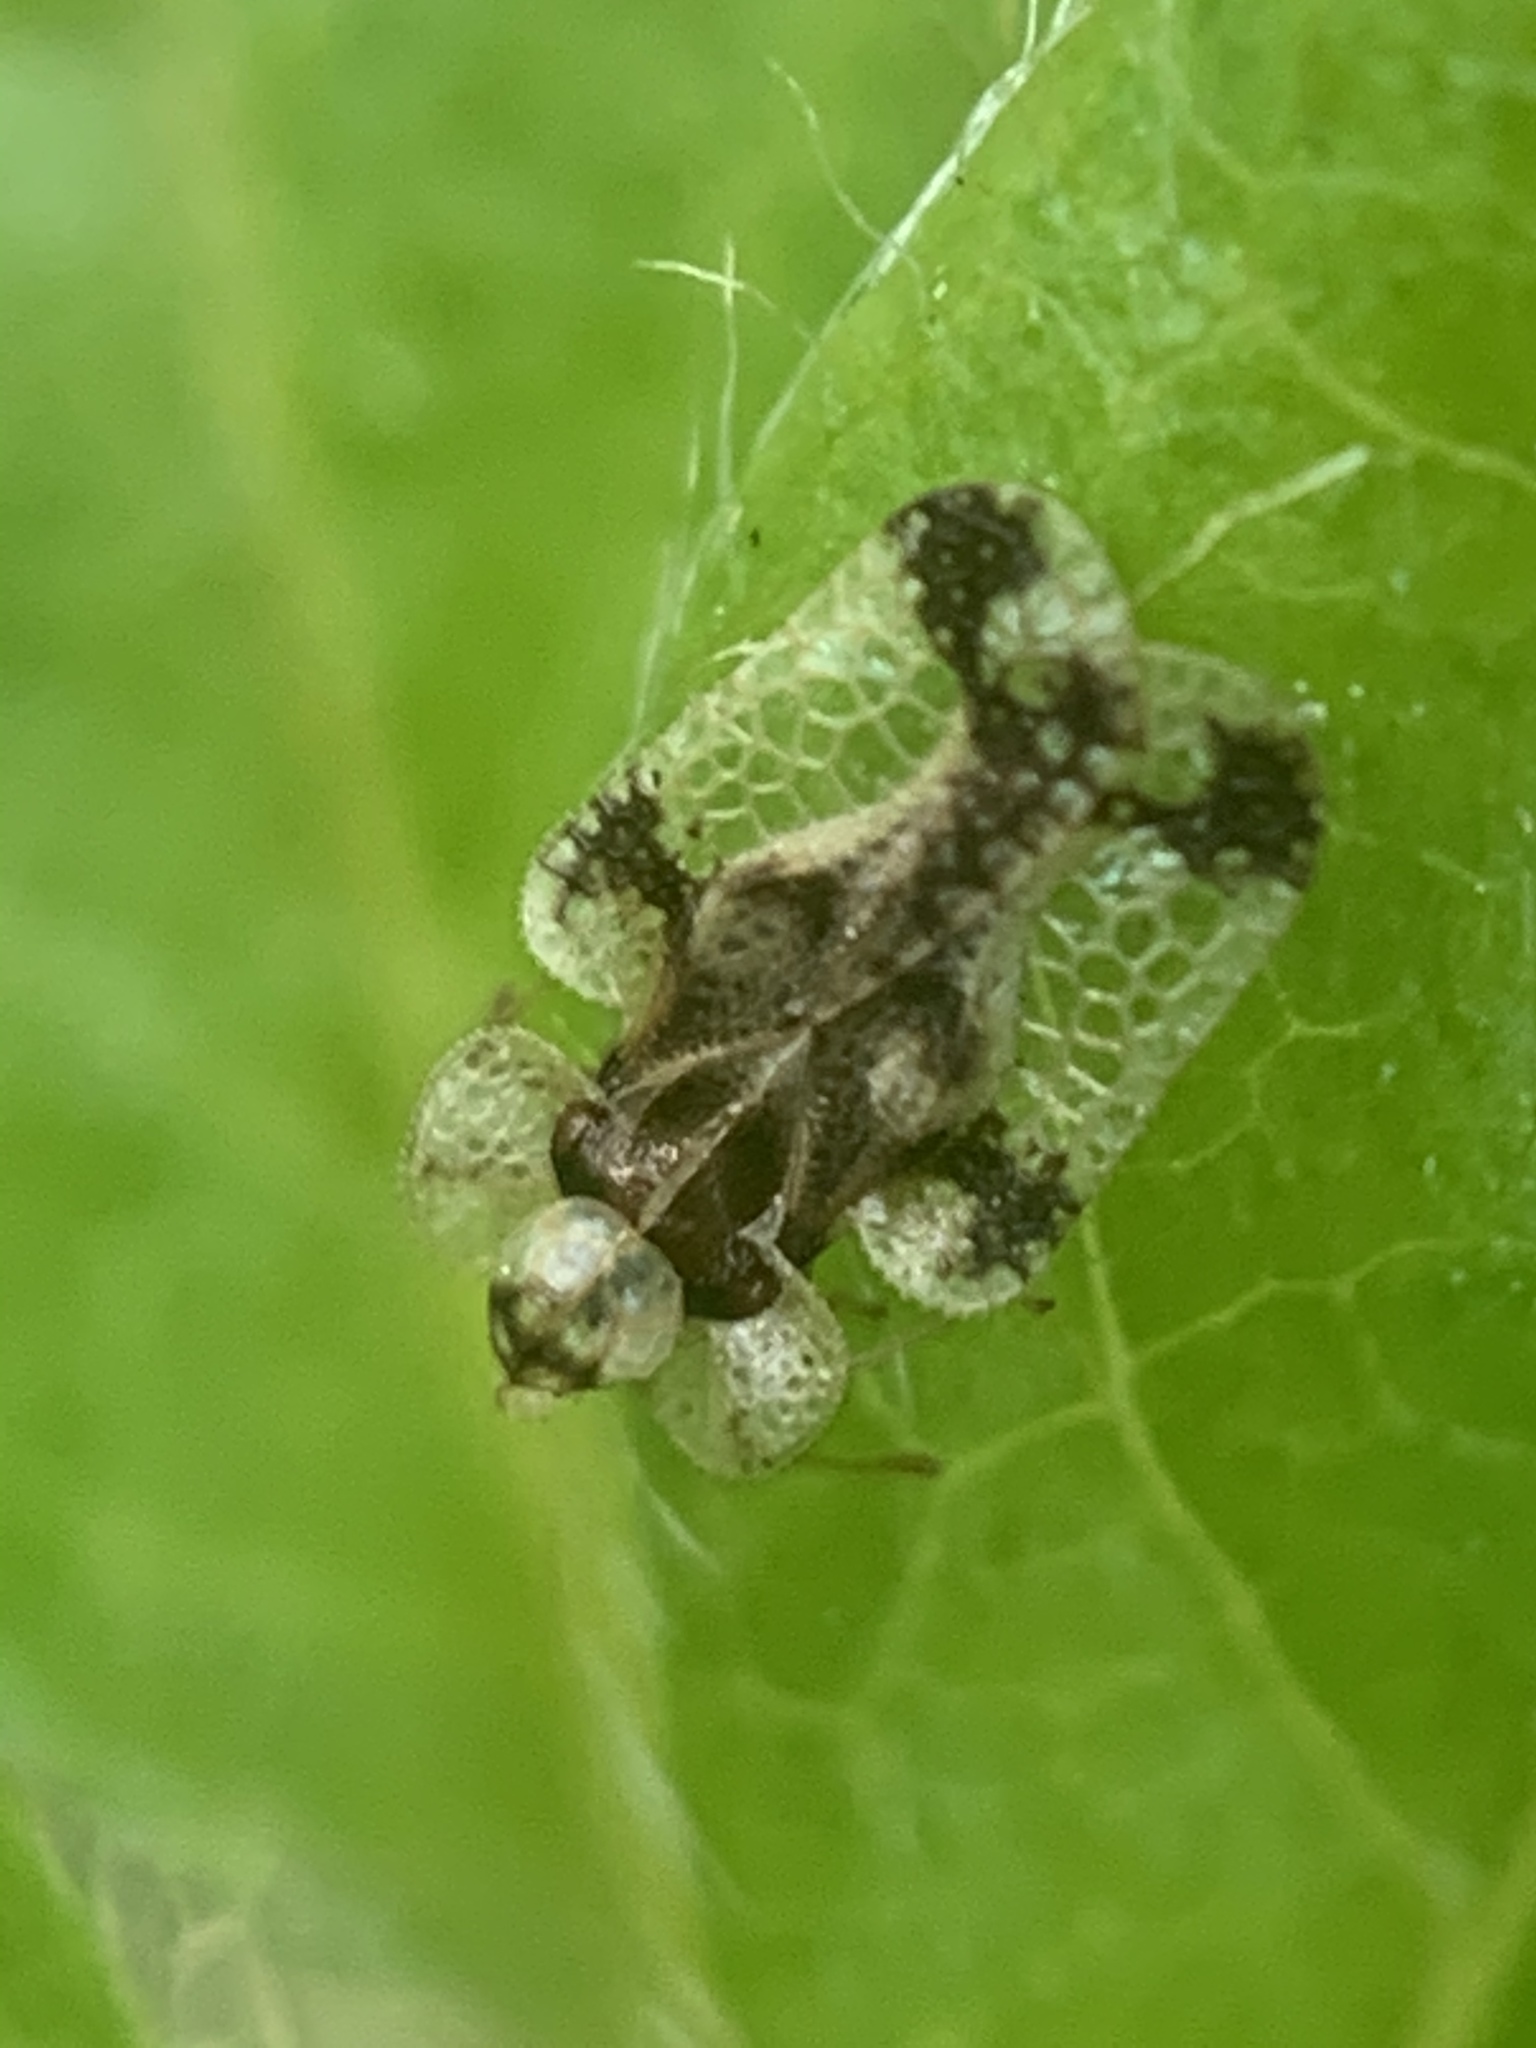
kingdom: Animalia
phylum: Arthropoda
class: Insecta
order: Hemiptera
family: Tingidae
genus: Corythucha
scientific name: Corythucha marmorata
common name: Chrysanthemum lace bug
